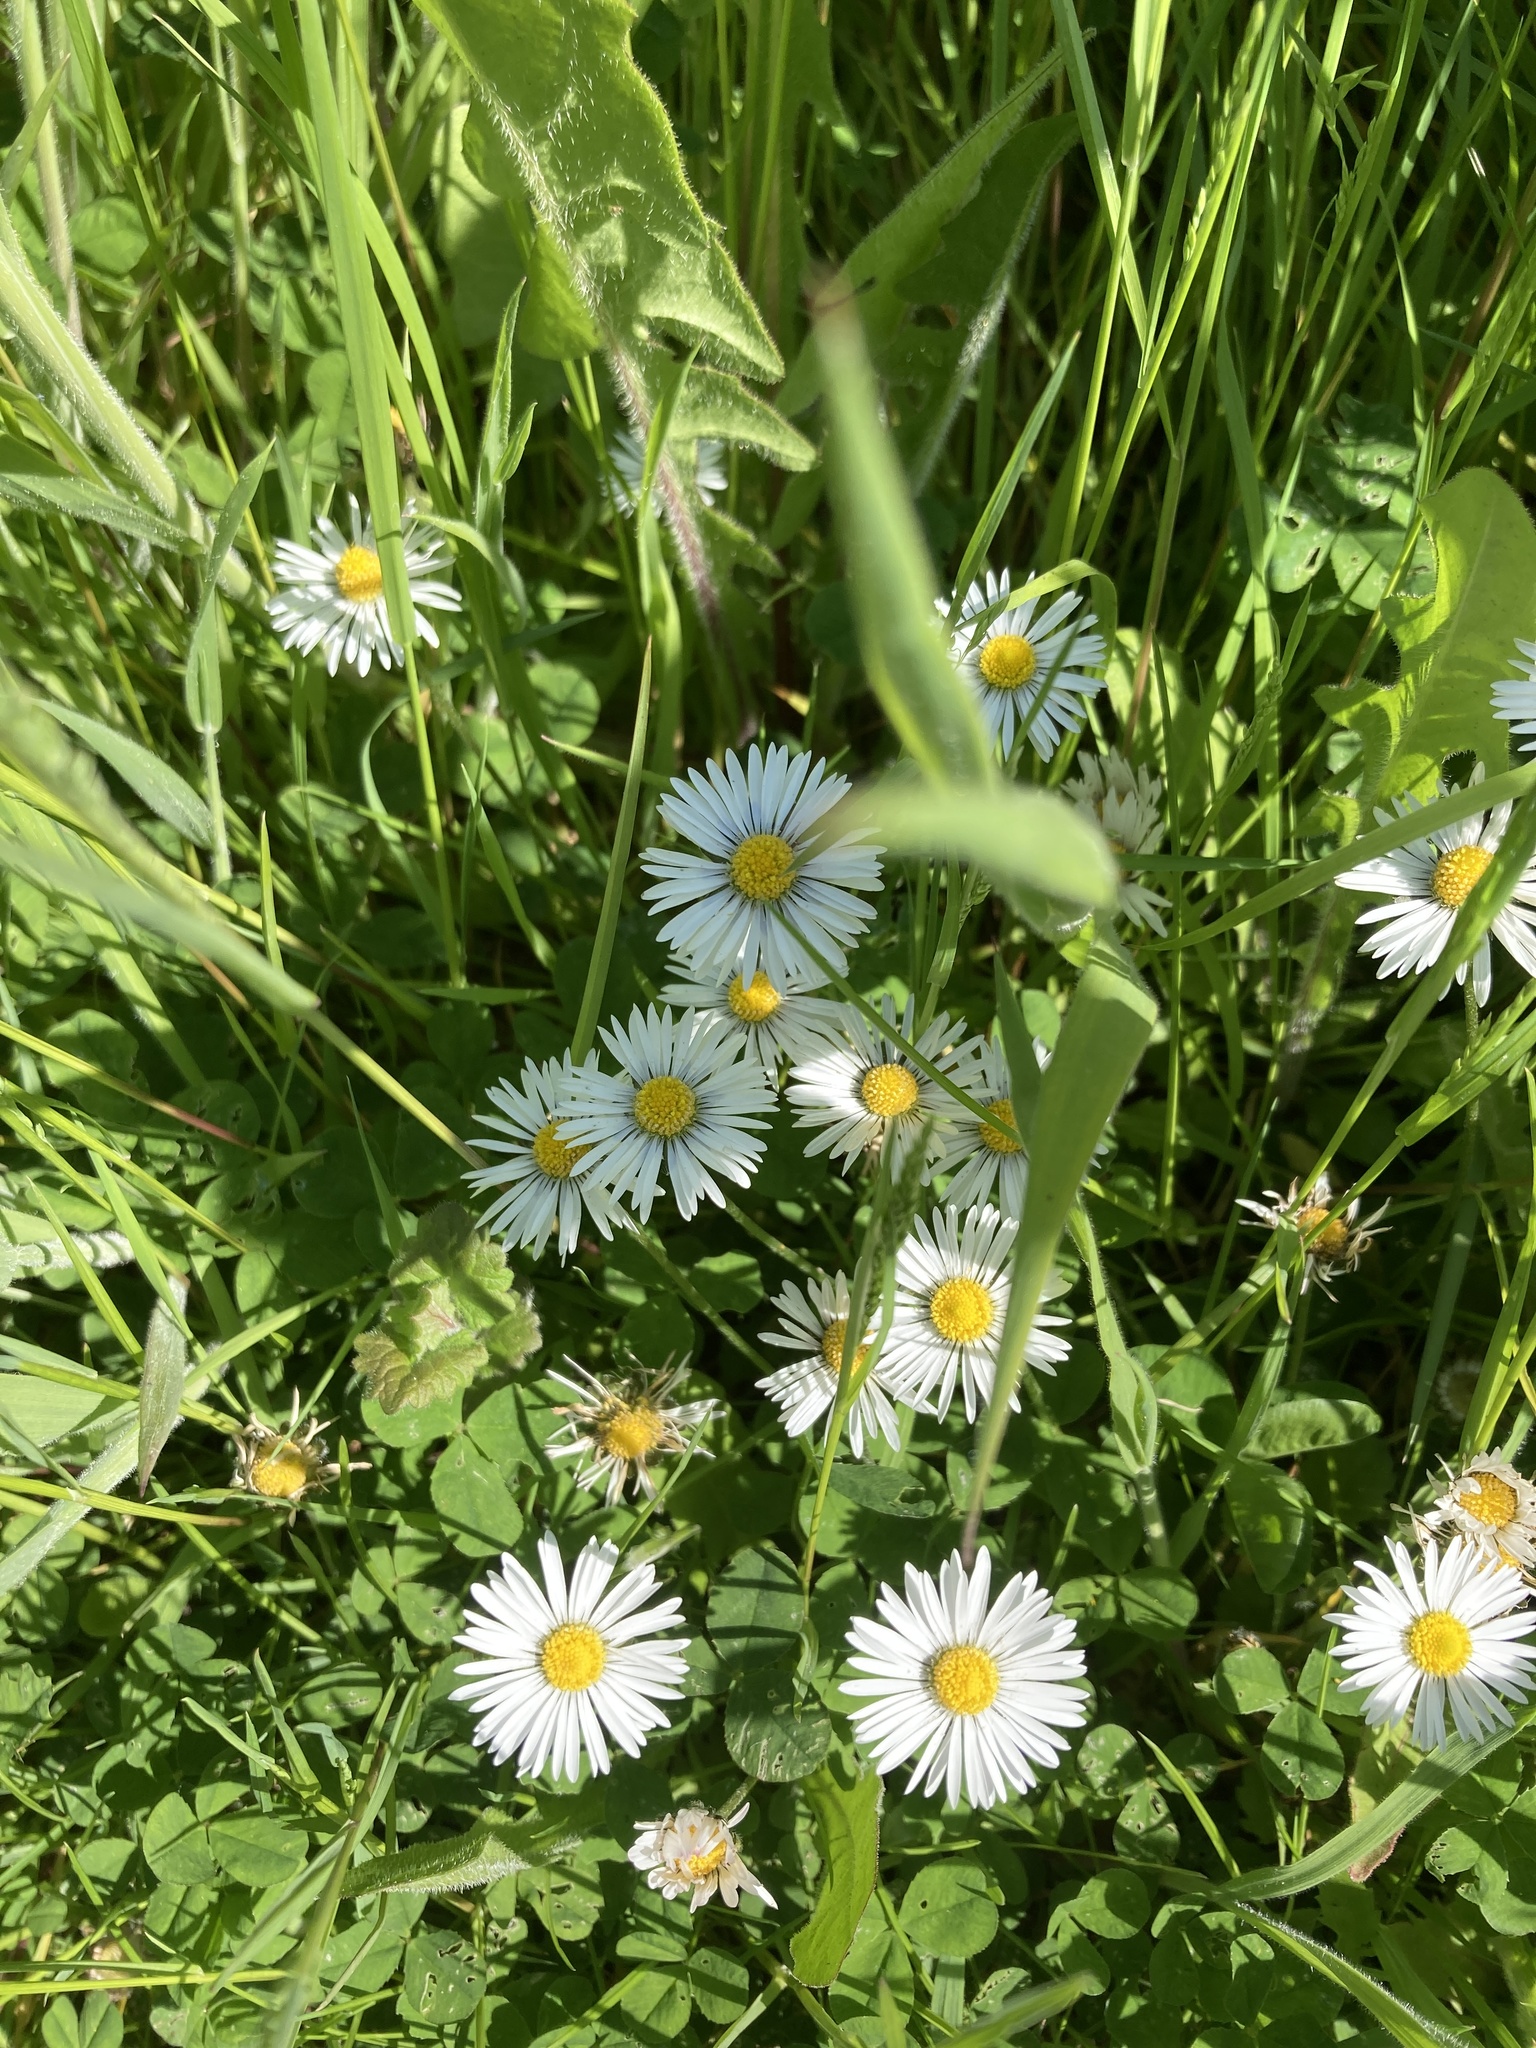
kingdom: Plantae
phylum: Tracheophyta
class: Magnoliopsida
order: Asterales
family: Asteraceae
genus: Bellis
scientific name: Bellis perennis
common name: Lawndaisy
